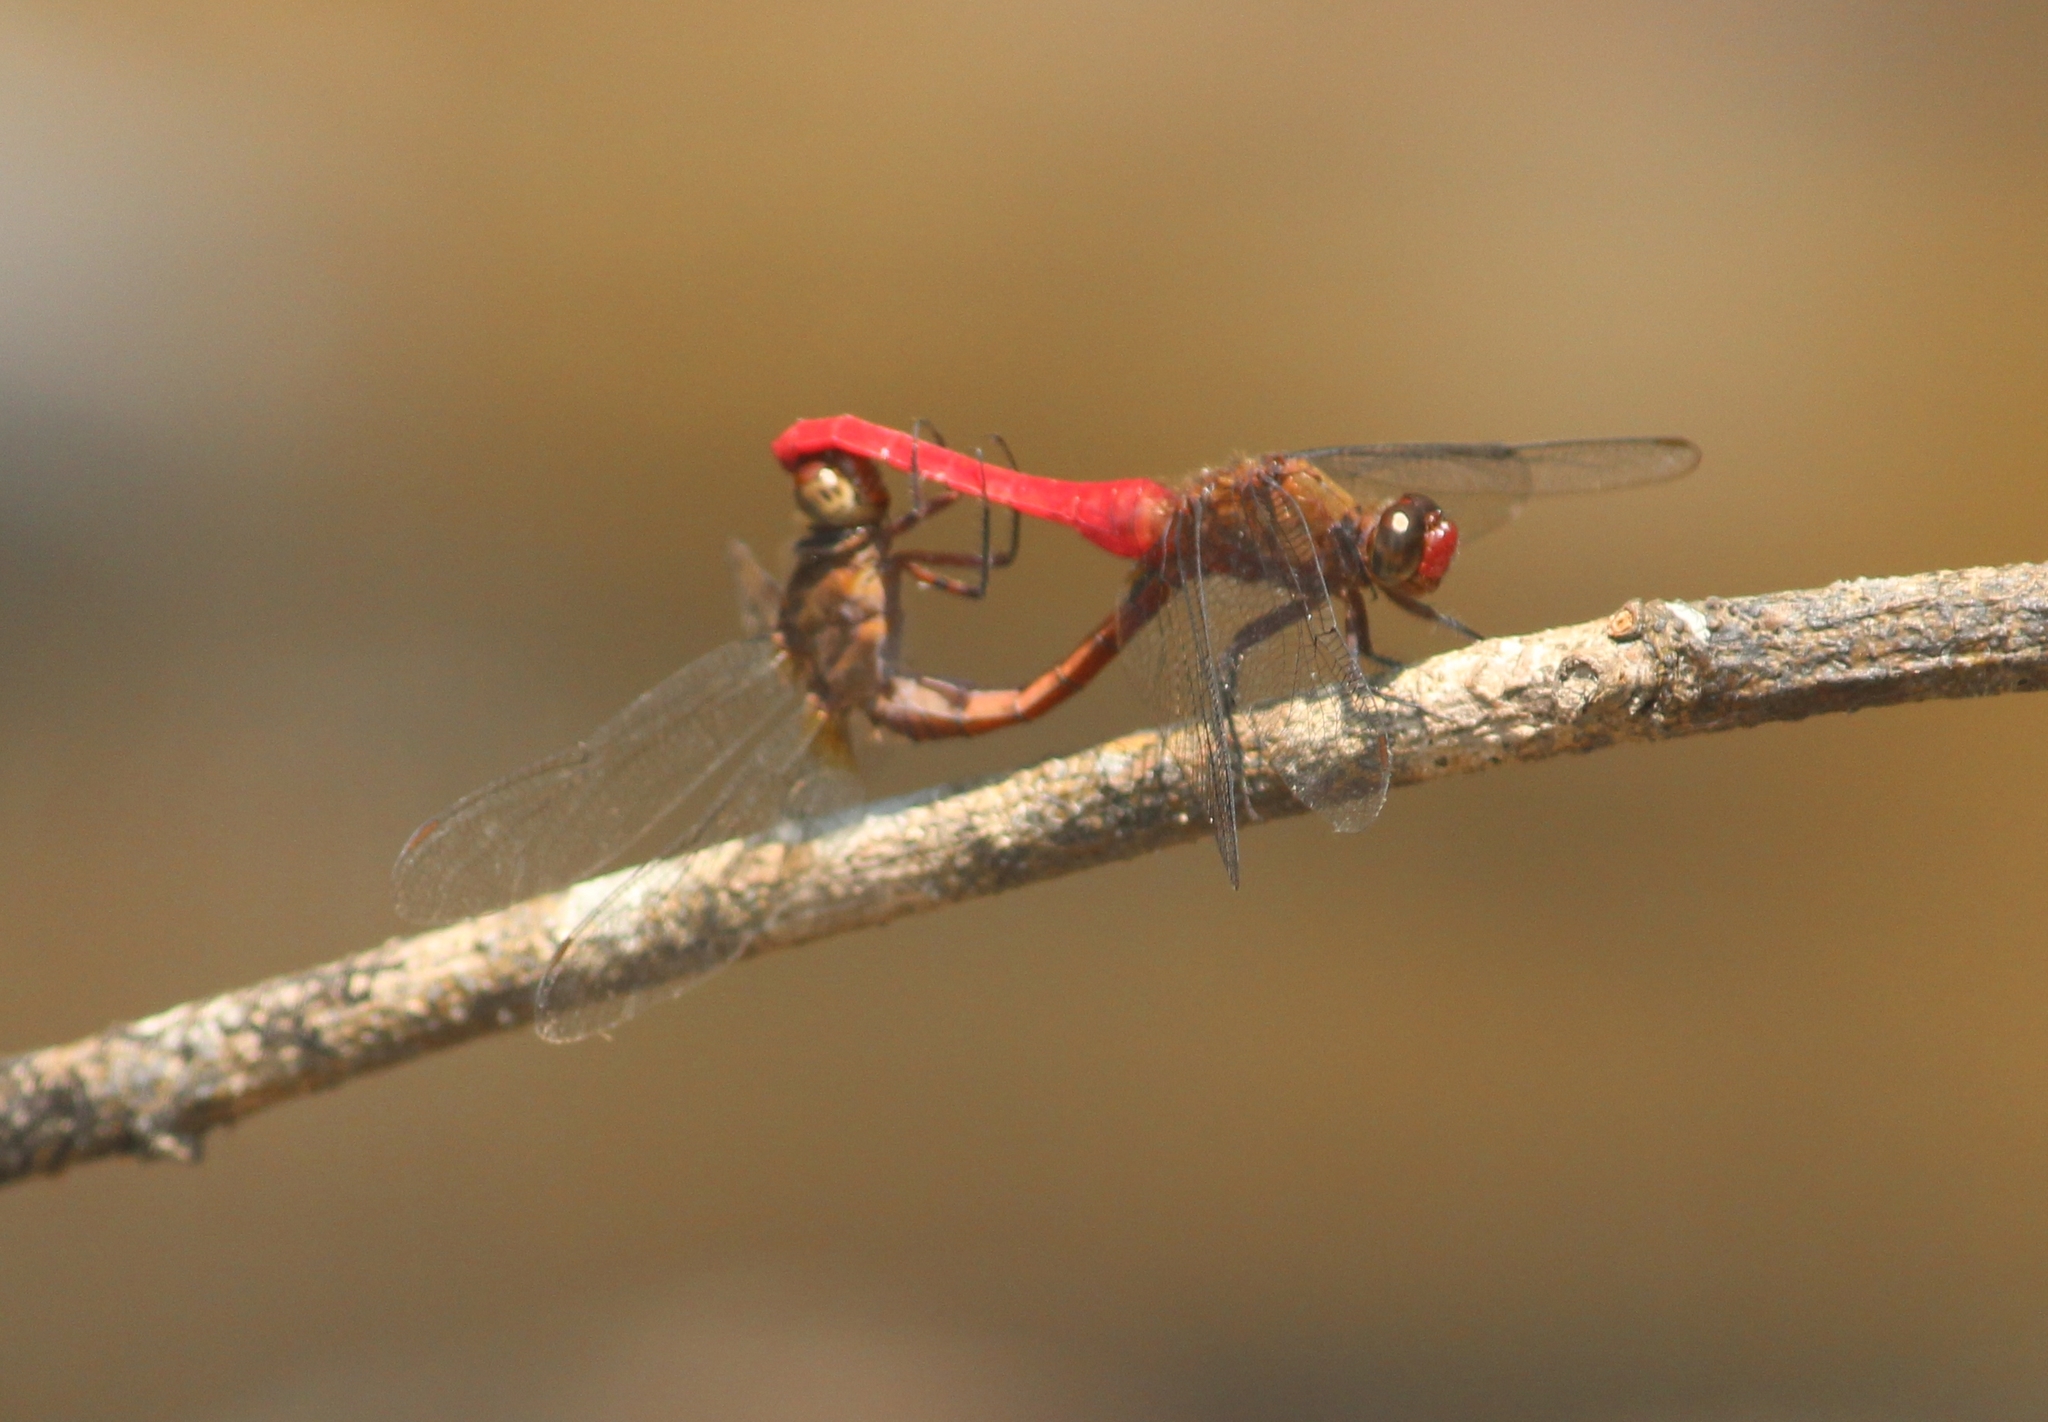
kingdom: Animalia
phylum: Arthropoda
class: Insecta
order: Odonata
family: Libellulidae
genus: Orthetrum
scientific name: Orthetrum chrysis
